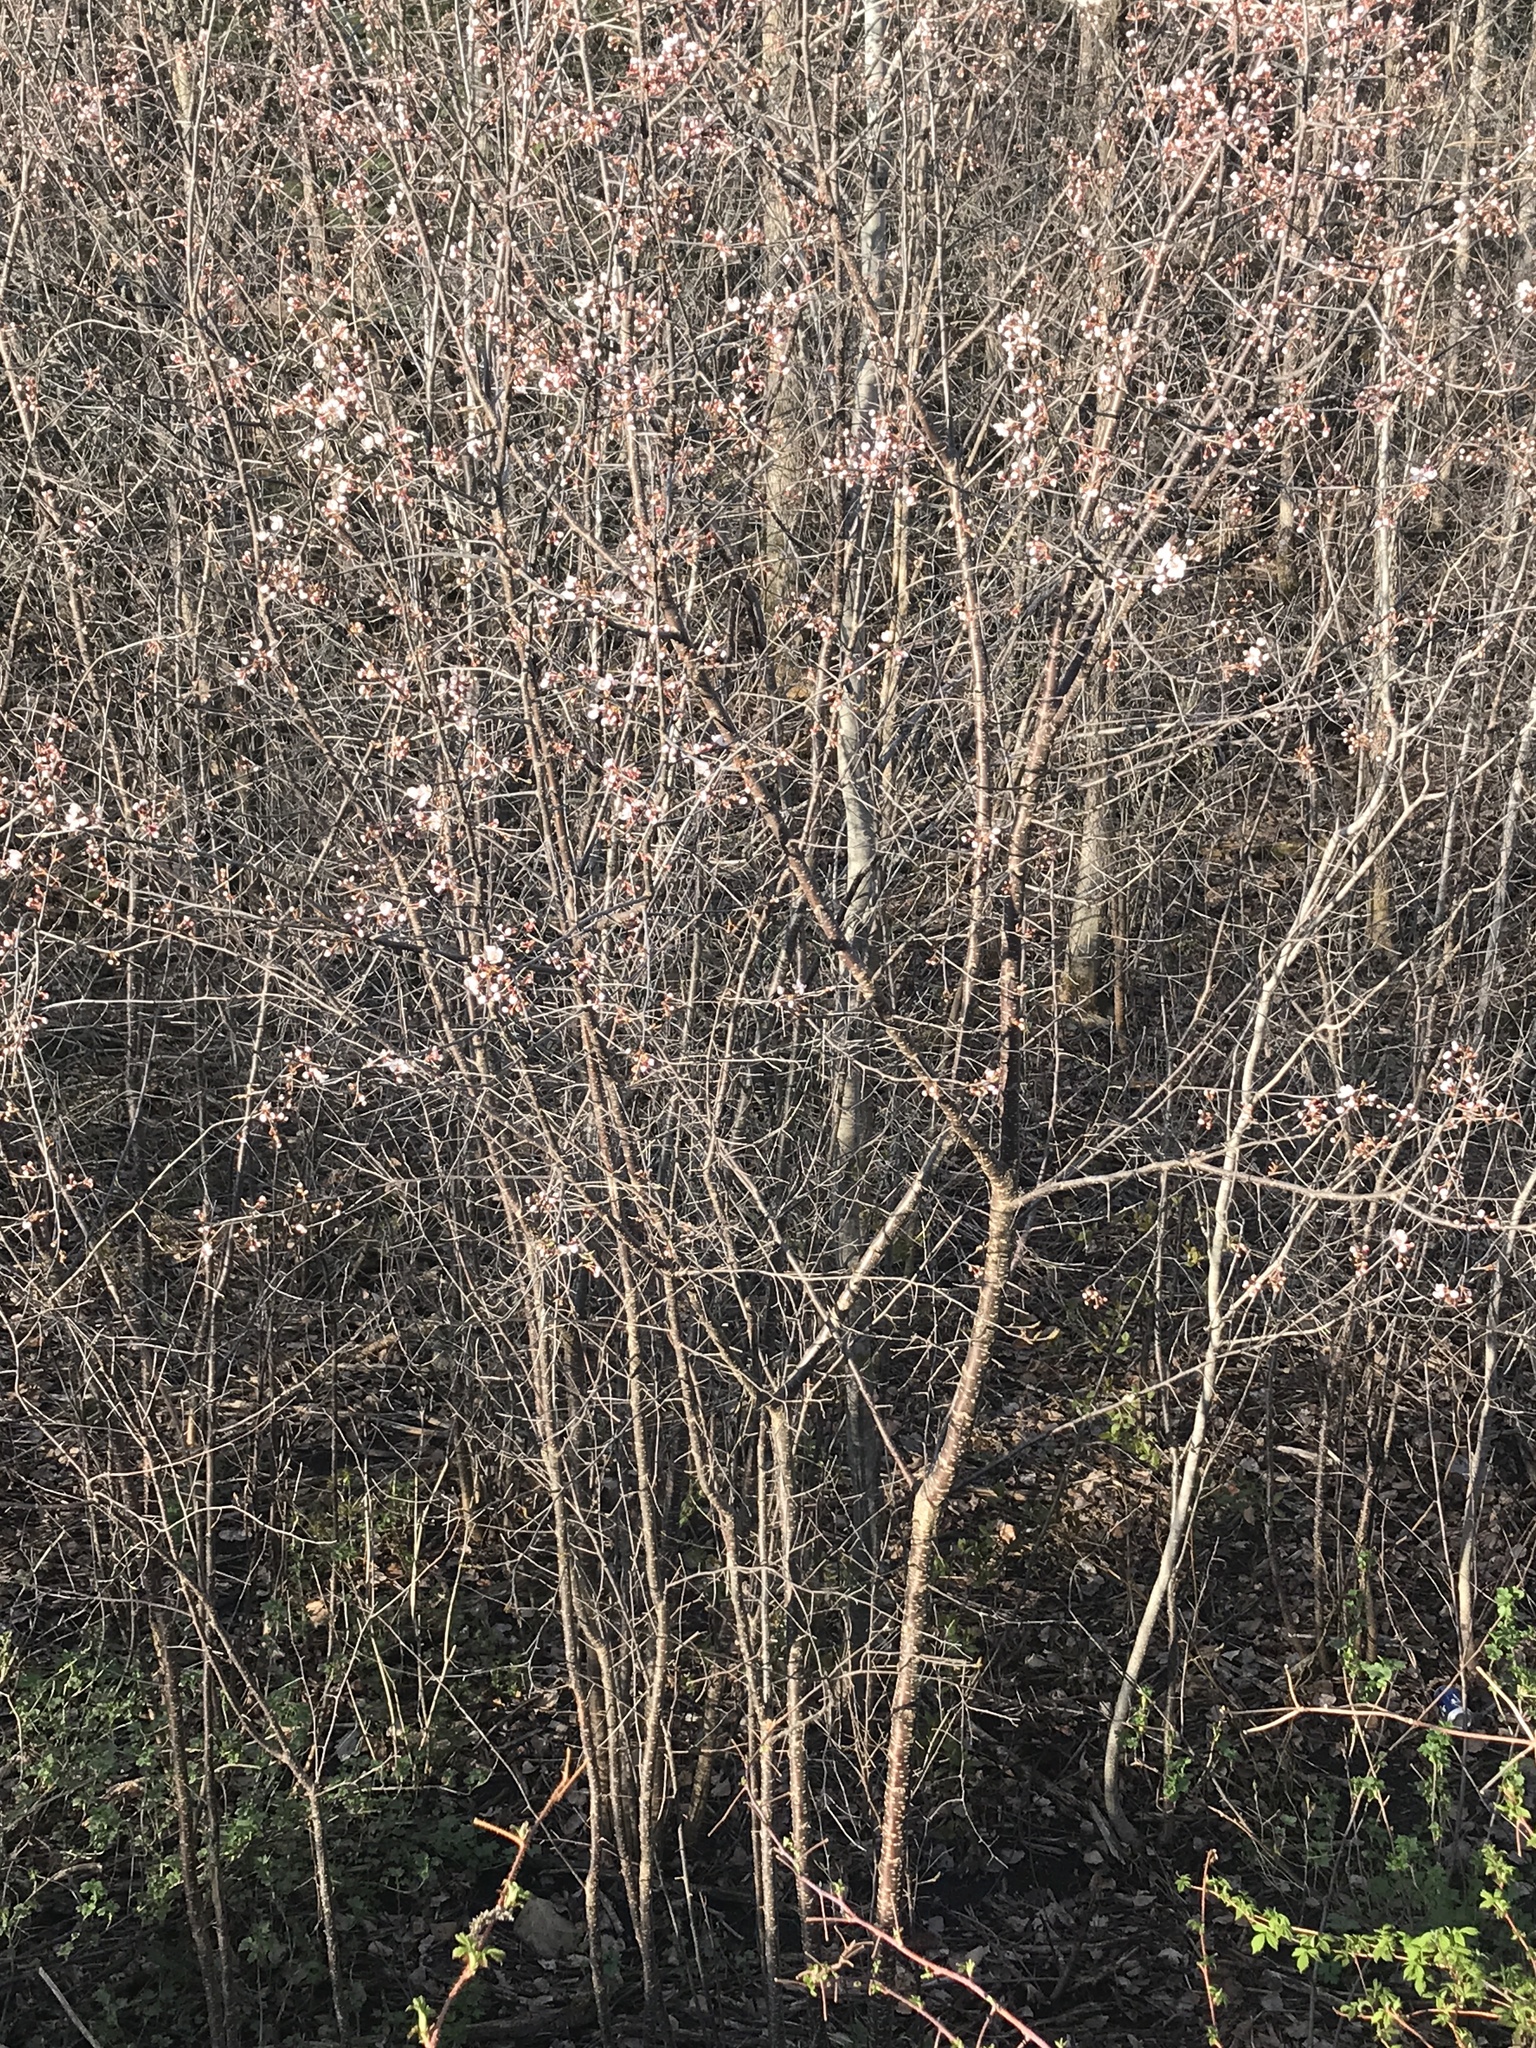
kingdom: Plantae
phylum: Tracheophyta
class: Magnoliopsida
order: Rosales
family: Rosaceae
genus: Prunus
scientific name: Prunus nigra
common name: Black plum
